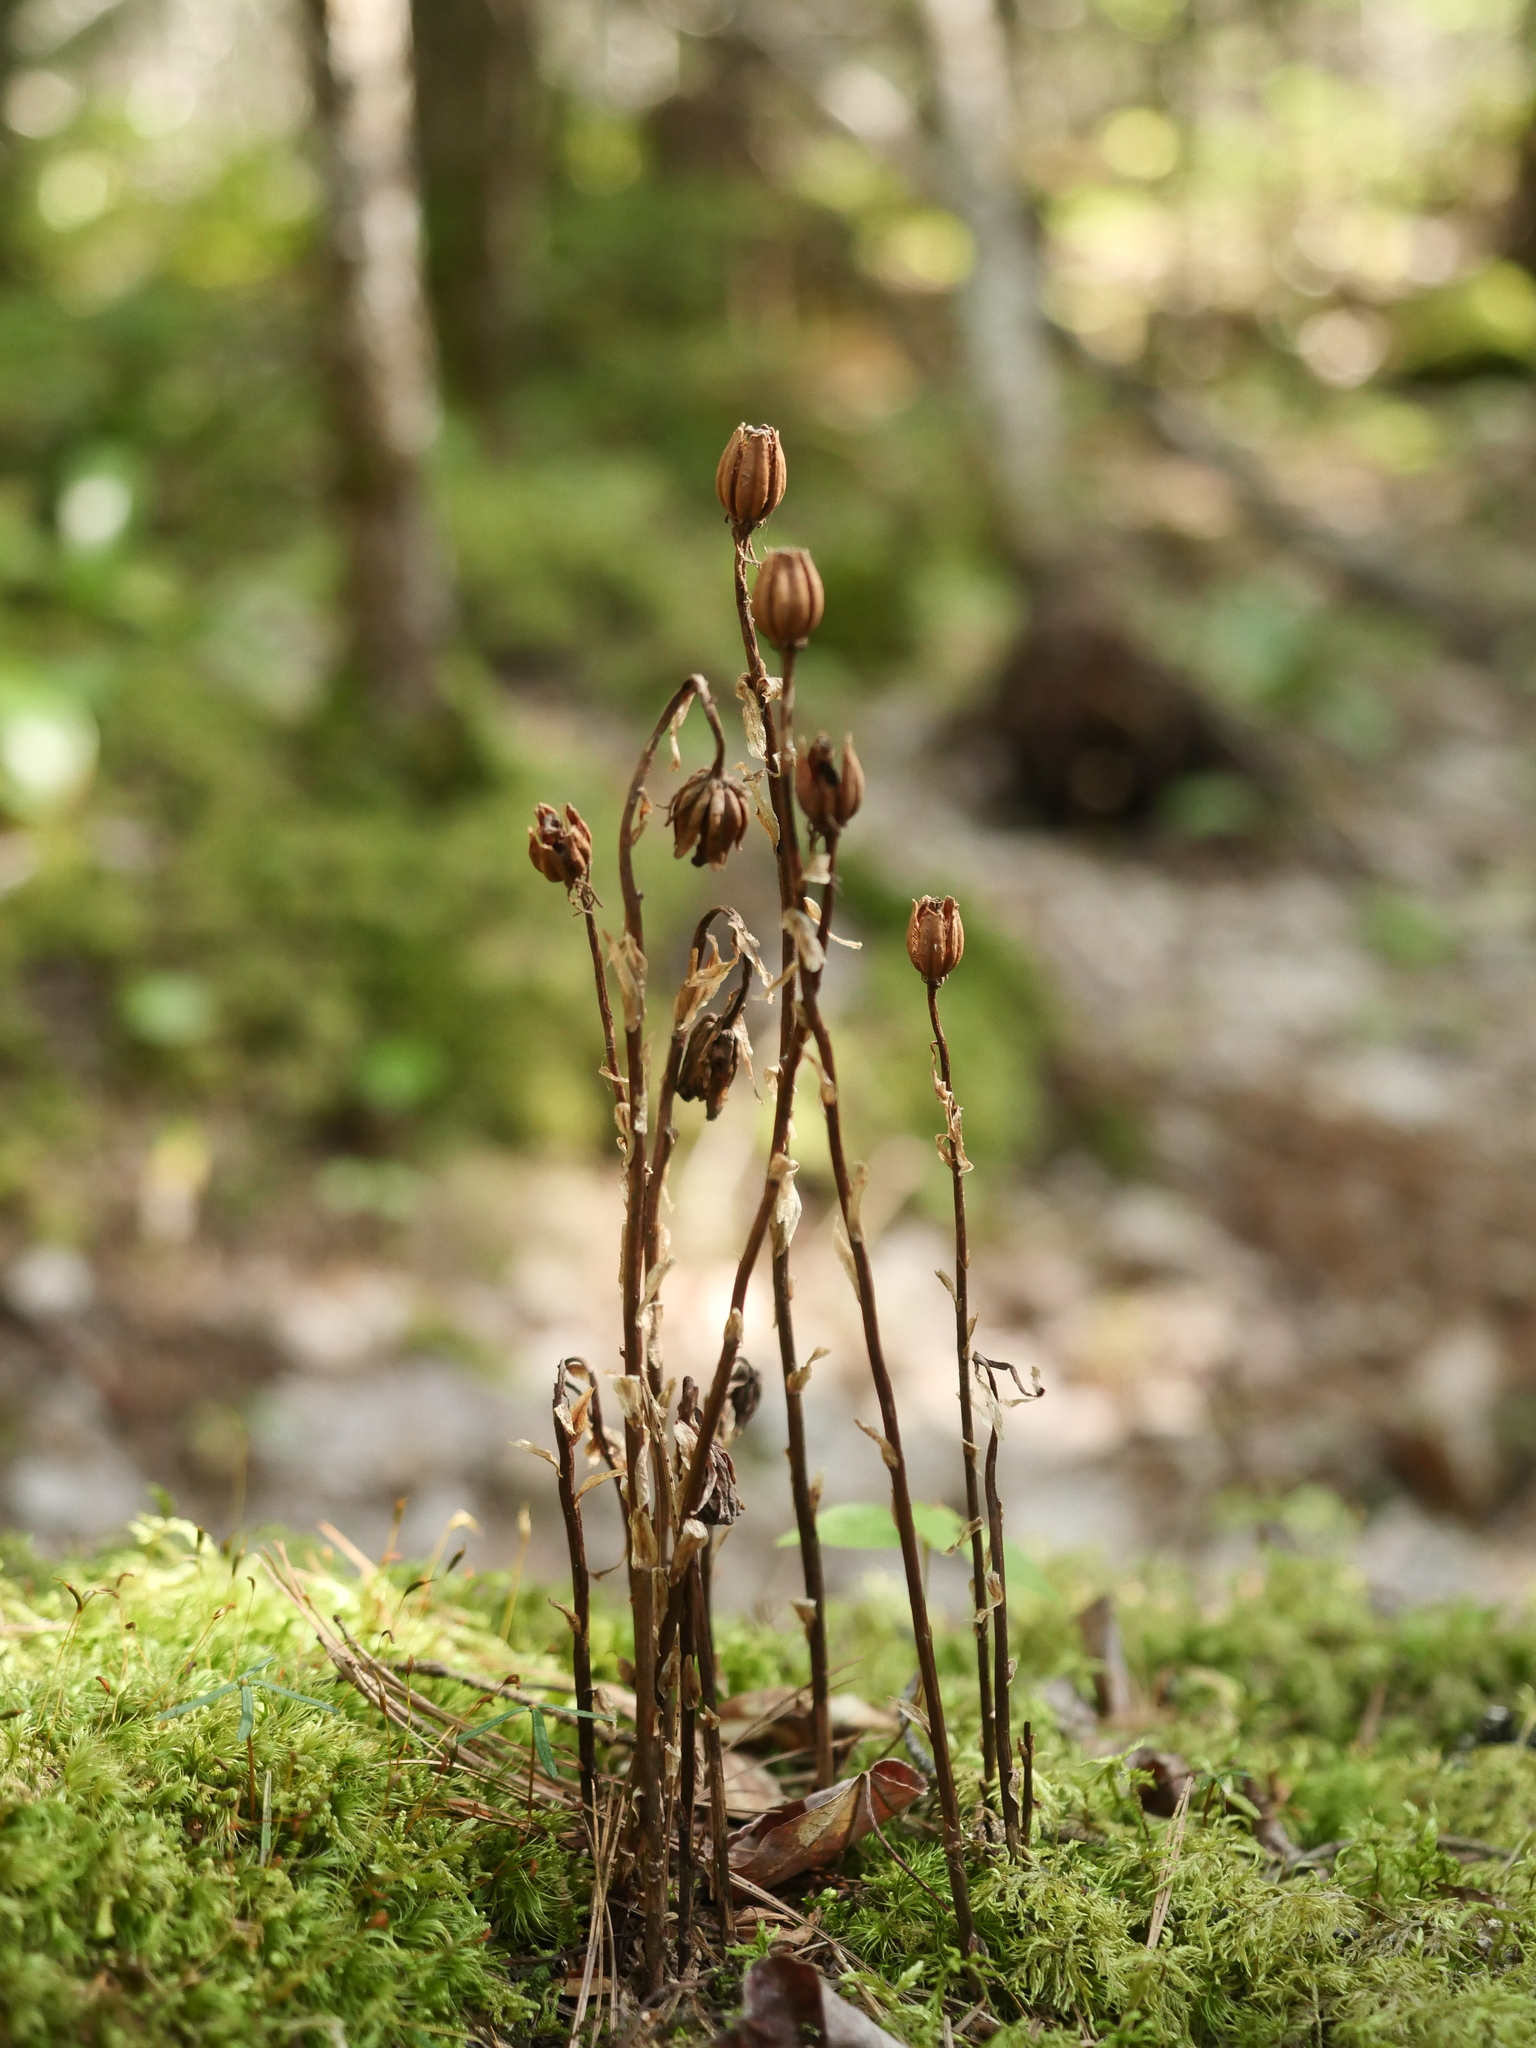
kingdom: Plantae
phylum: Tracheophyta
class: Magnoliopsida
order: Ericales
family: Ericaceae
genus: Monotropa
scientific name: Monotropa uniflora
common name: Convulsion root
